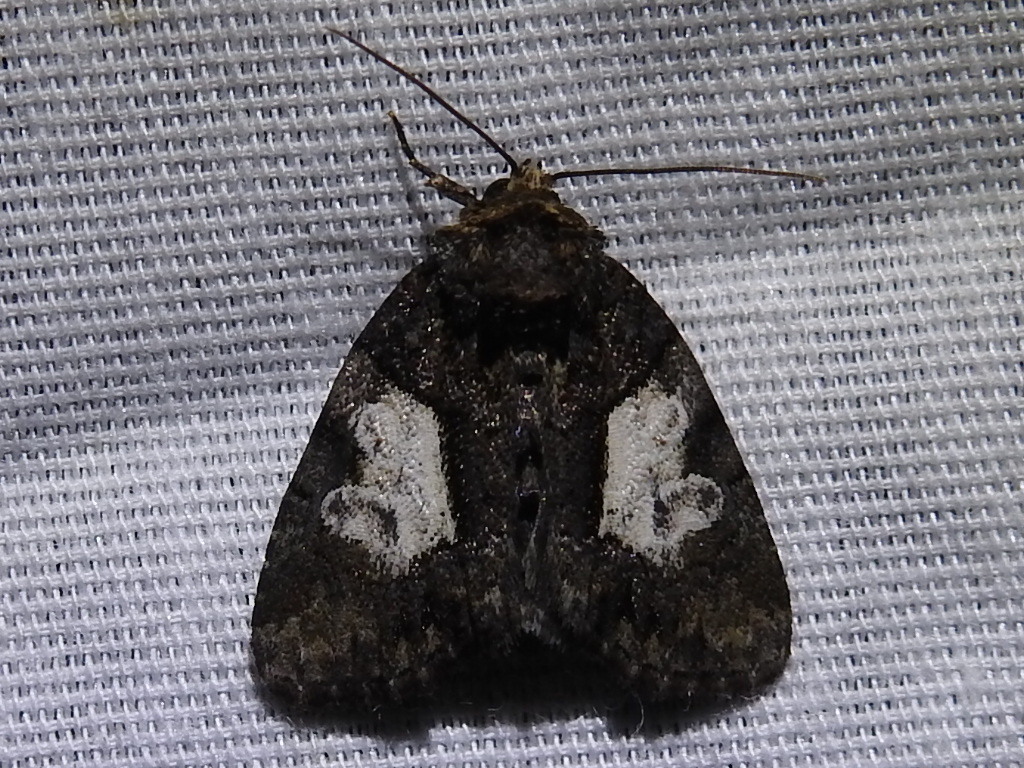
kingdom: Animalia
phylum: Arthropoda
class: Insecta
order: Lepidoptera
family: Noctuidae
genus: Chytonix
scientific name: Chytonix palliatricula
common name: Cloaked marvel
